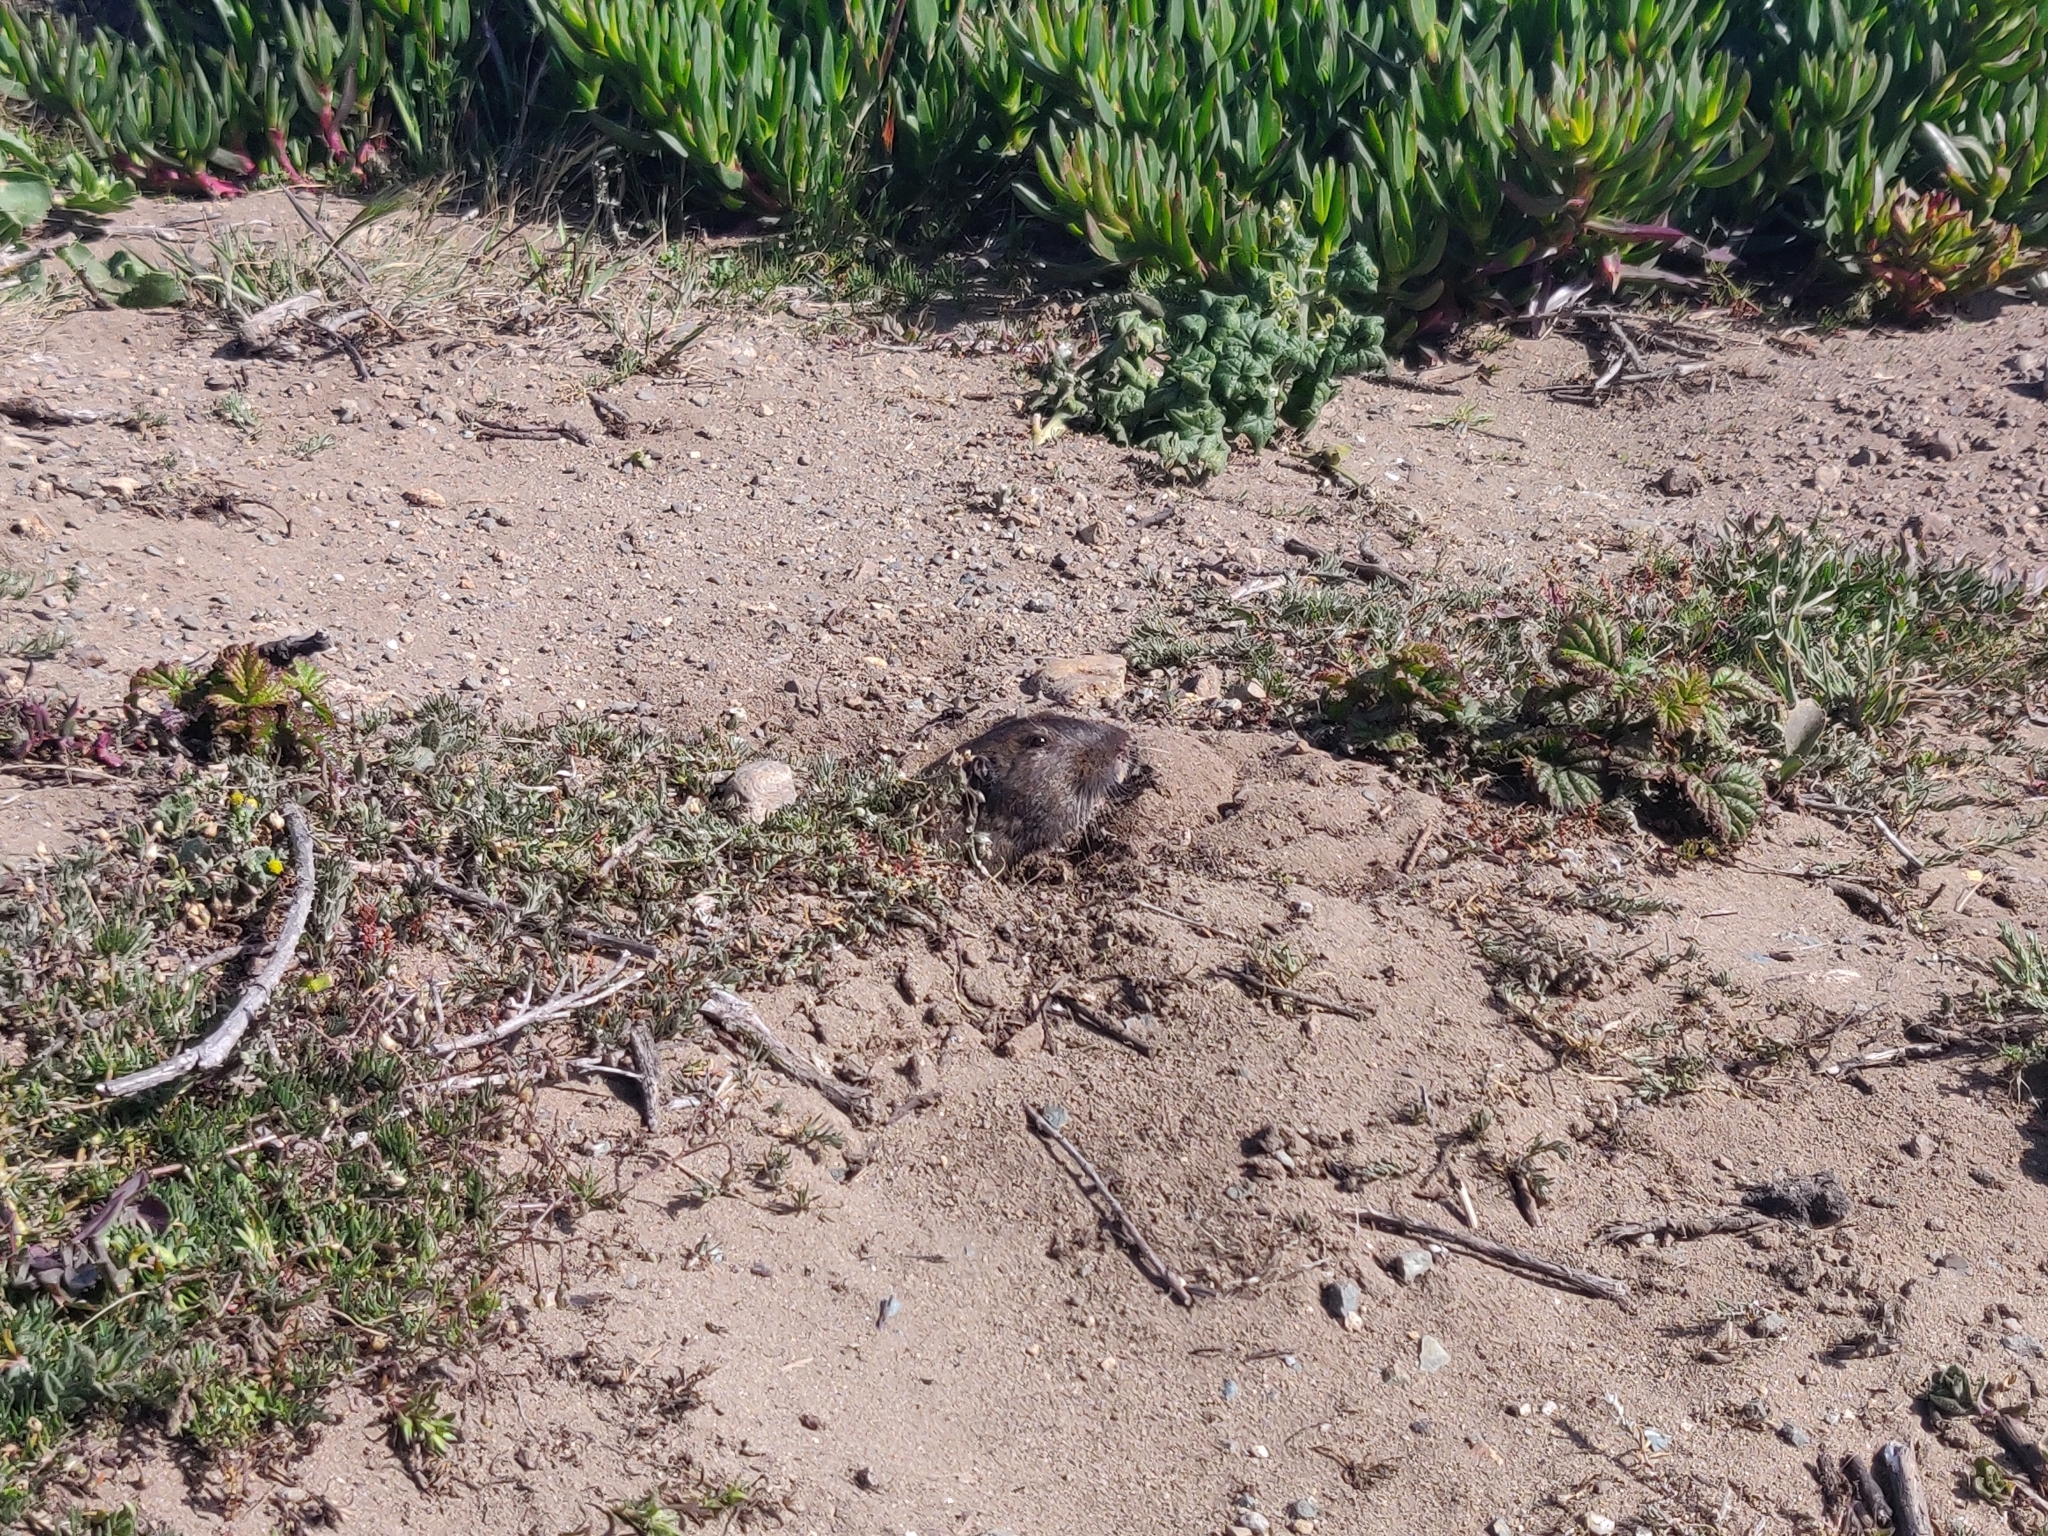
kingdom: Animalia
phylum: Chordata
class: Mammalia
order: Rodentia
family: Geomyidae
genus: Thomomys
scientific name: Thomomys bottae
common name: Botta's pocket gopher
